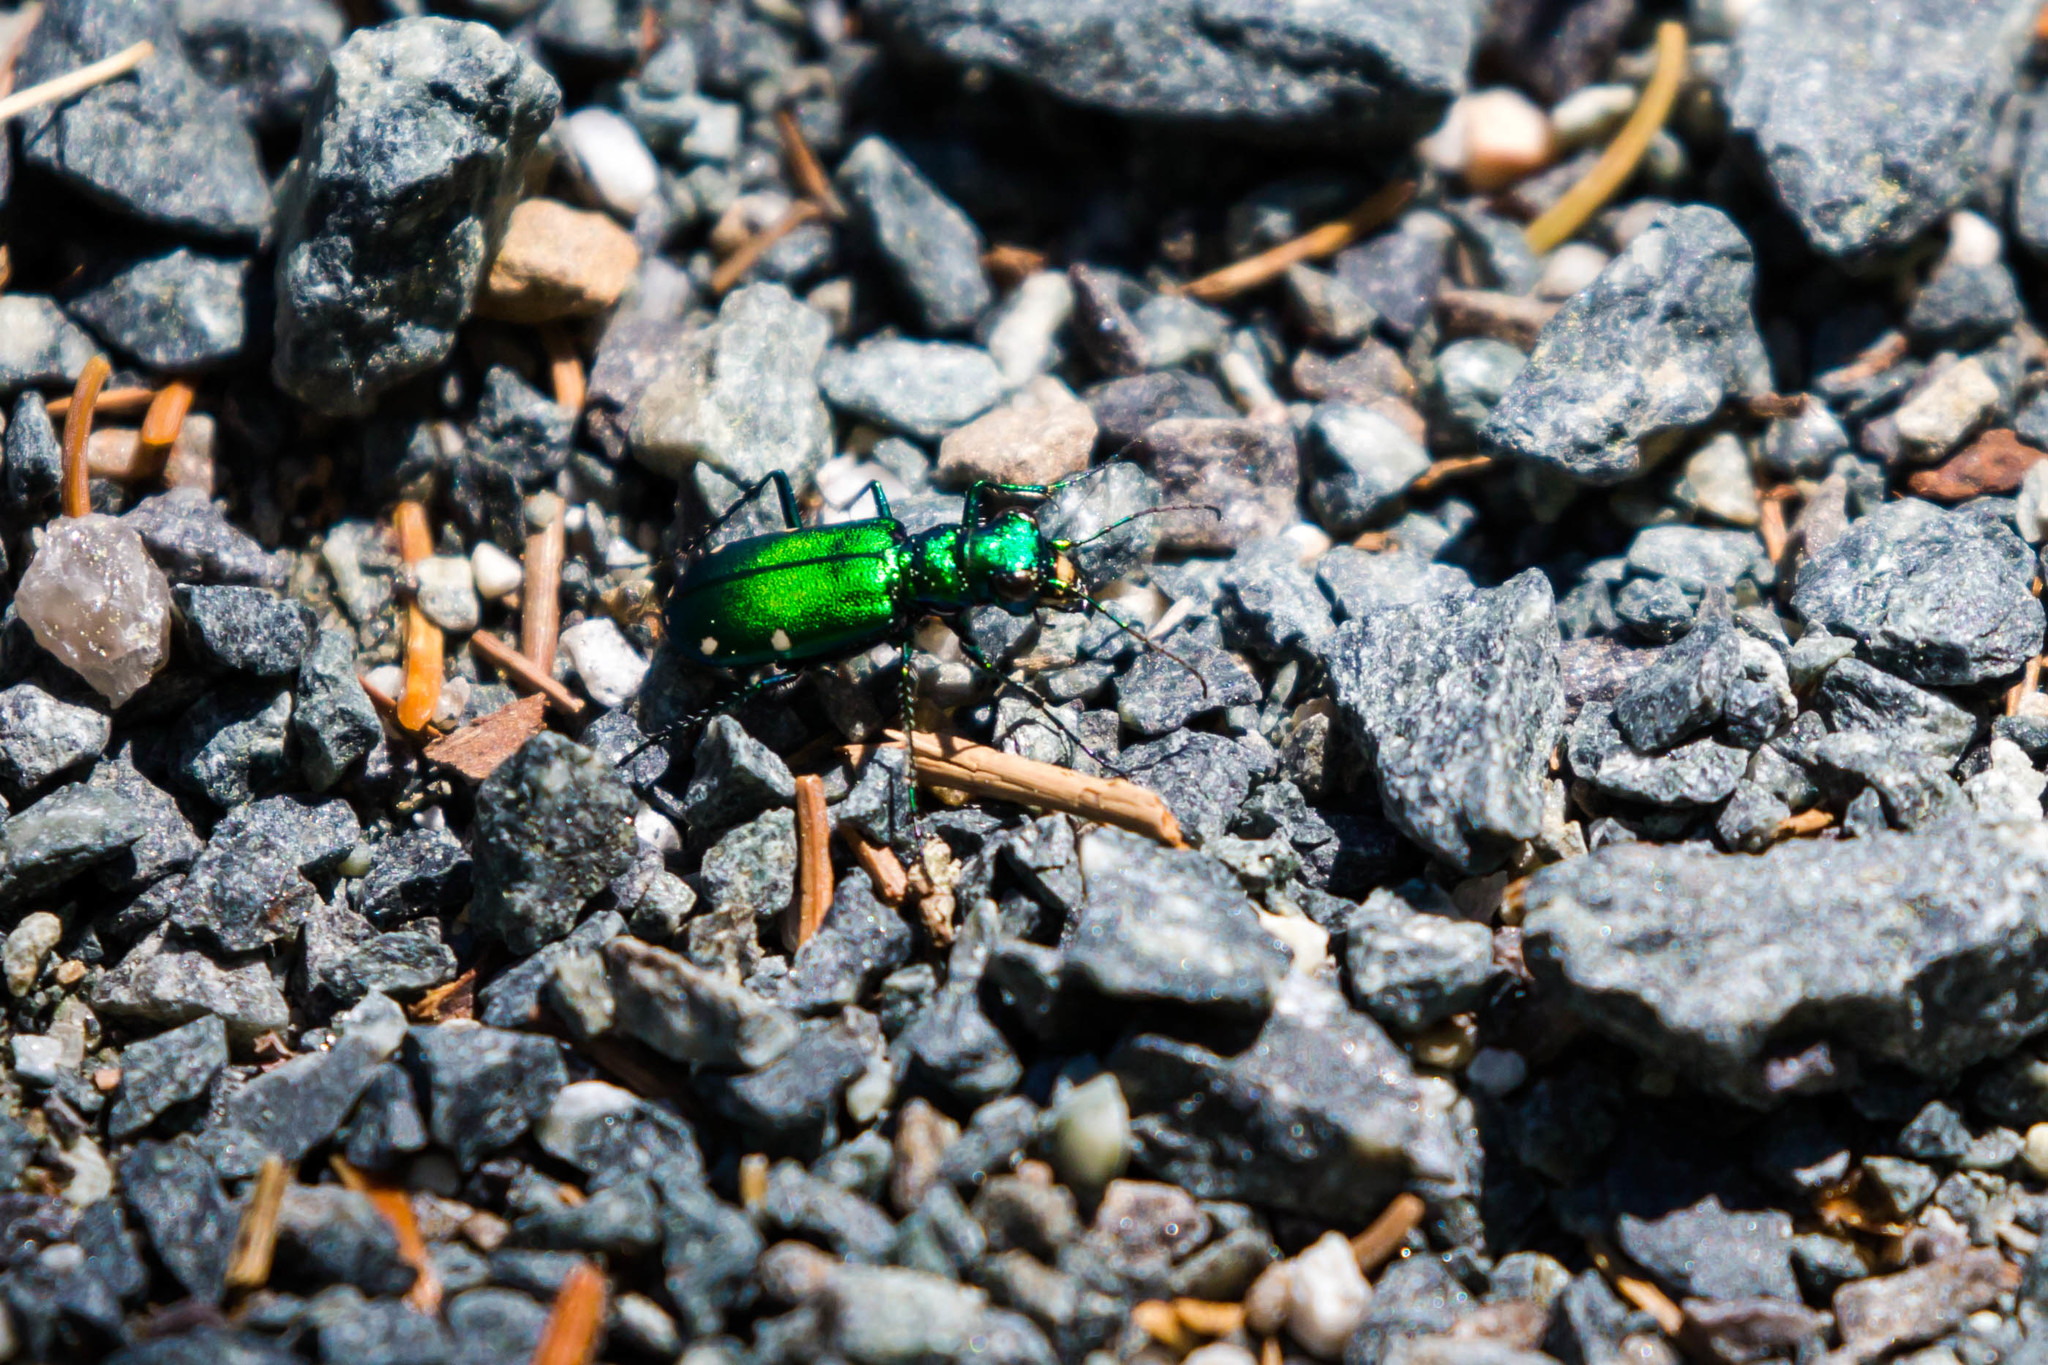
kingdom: Animalia
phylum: Arthropoda
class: Insecta
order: Coleoptera
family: Carabidae
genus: Cicindela
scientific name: Cicindela sexguttata
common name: Six-spotted tiger beetle
